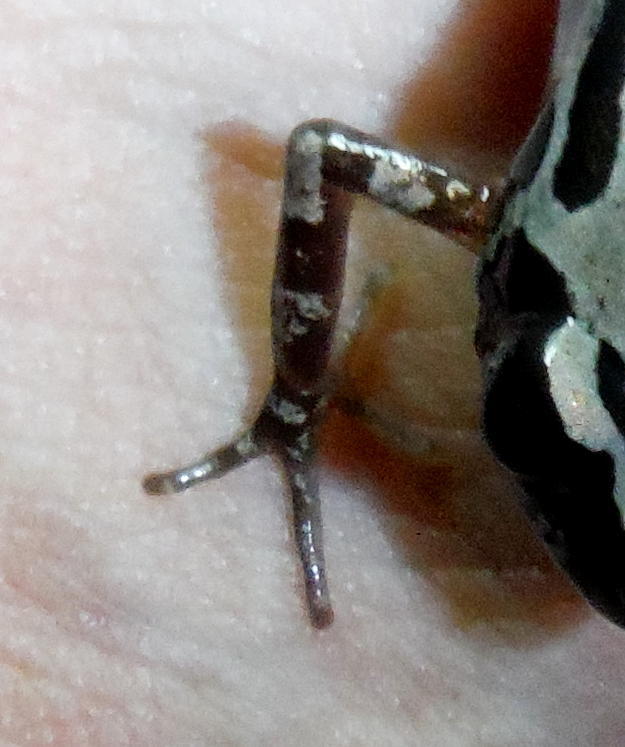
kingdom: Animalia
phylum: Chordata
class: Amphibia
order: Anura
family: Hyperoliidae
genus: Kassina
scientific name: Kassina senegalensis
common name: Senegal land frog
